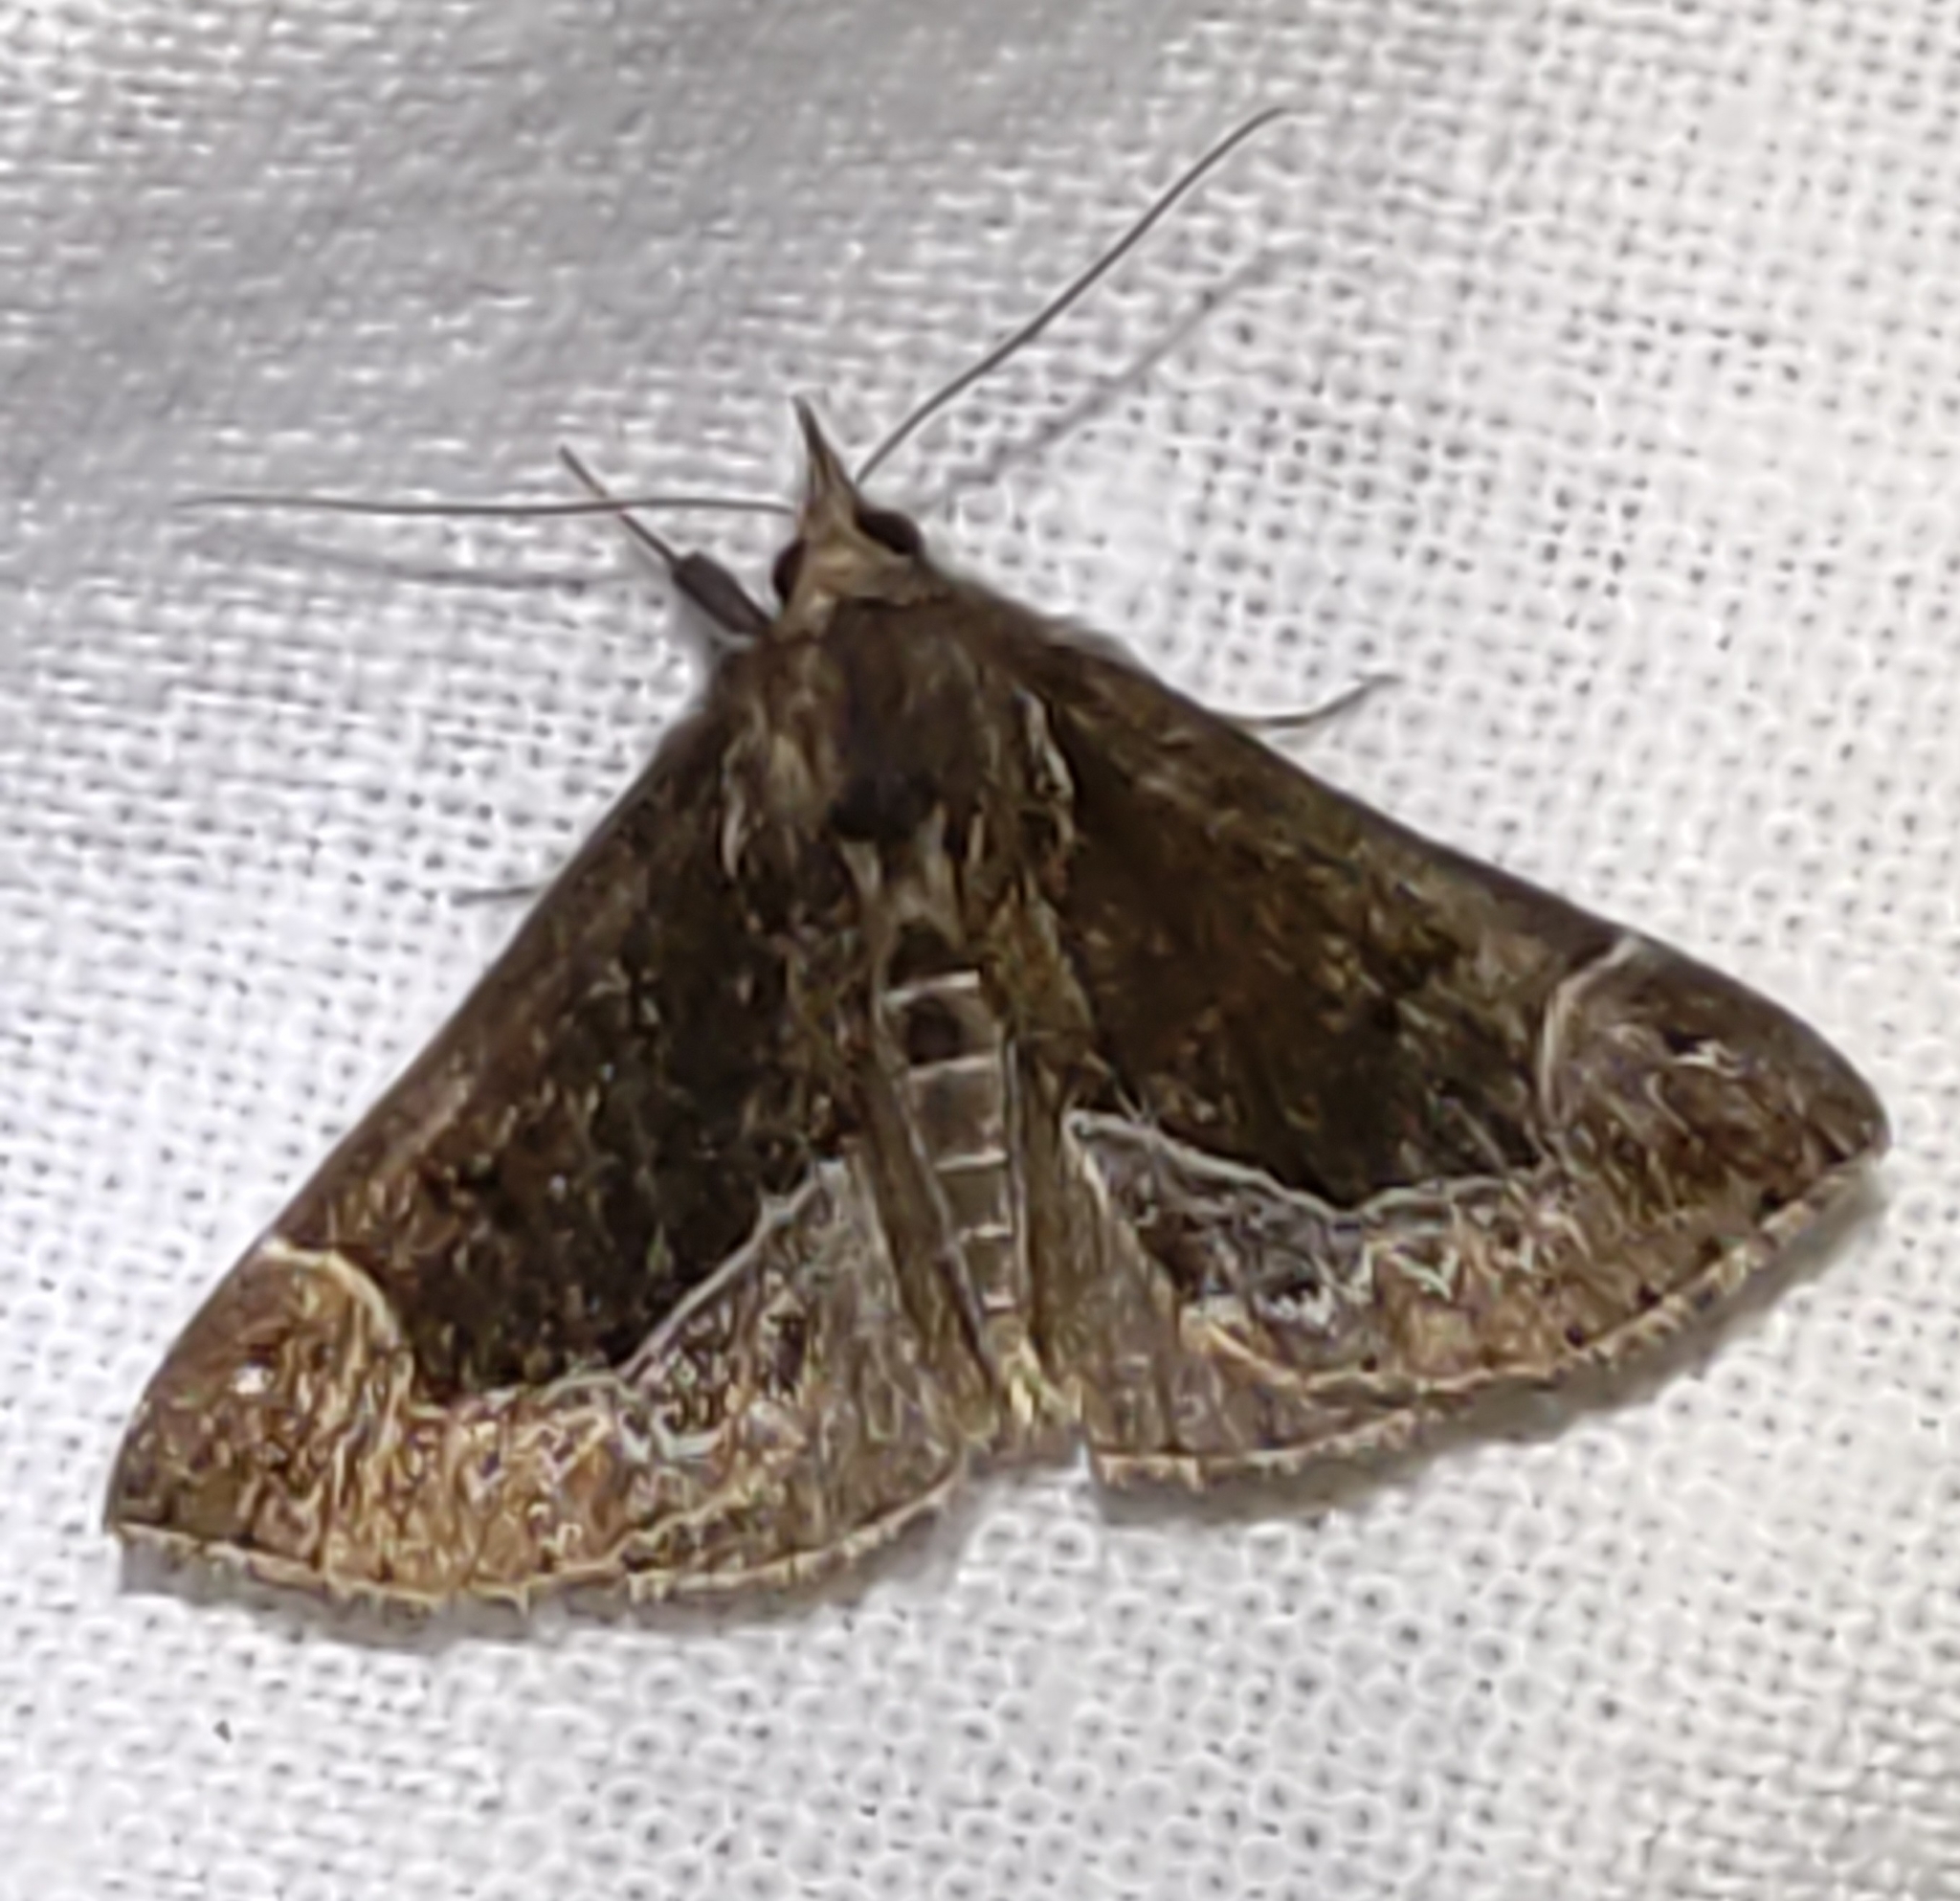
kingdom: Animalia
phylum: Arthropoda
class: Insecta
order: Lepidoptera
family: Erebidae
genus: Hypena
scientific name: Hypena crassalis
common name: Beautiful snout
